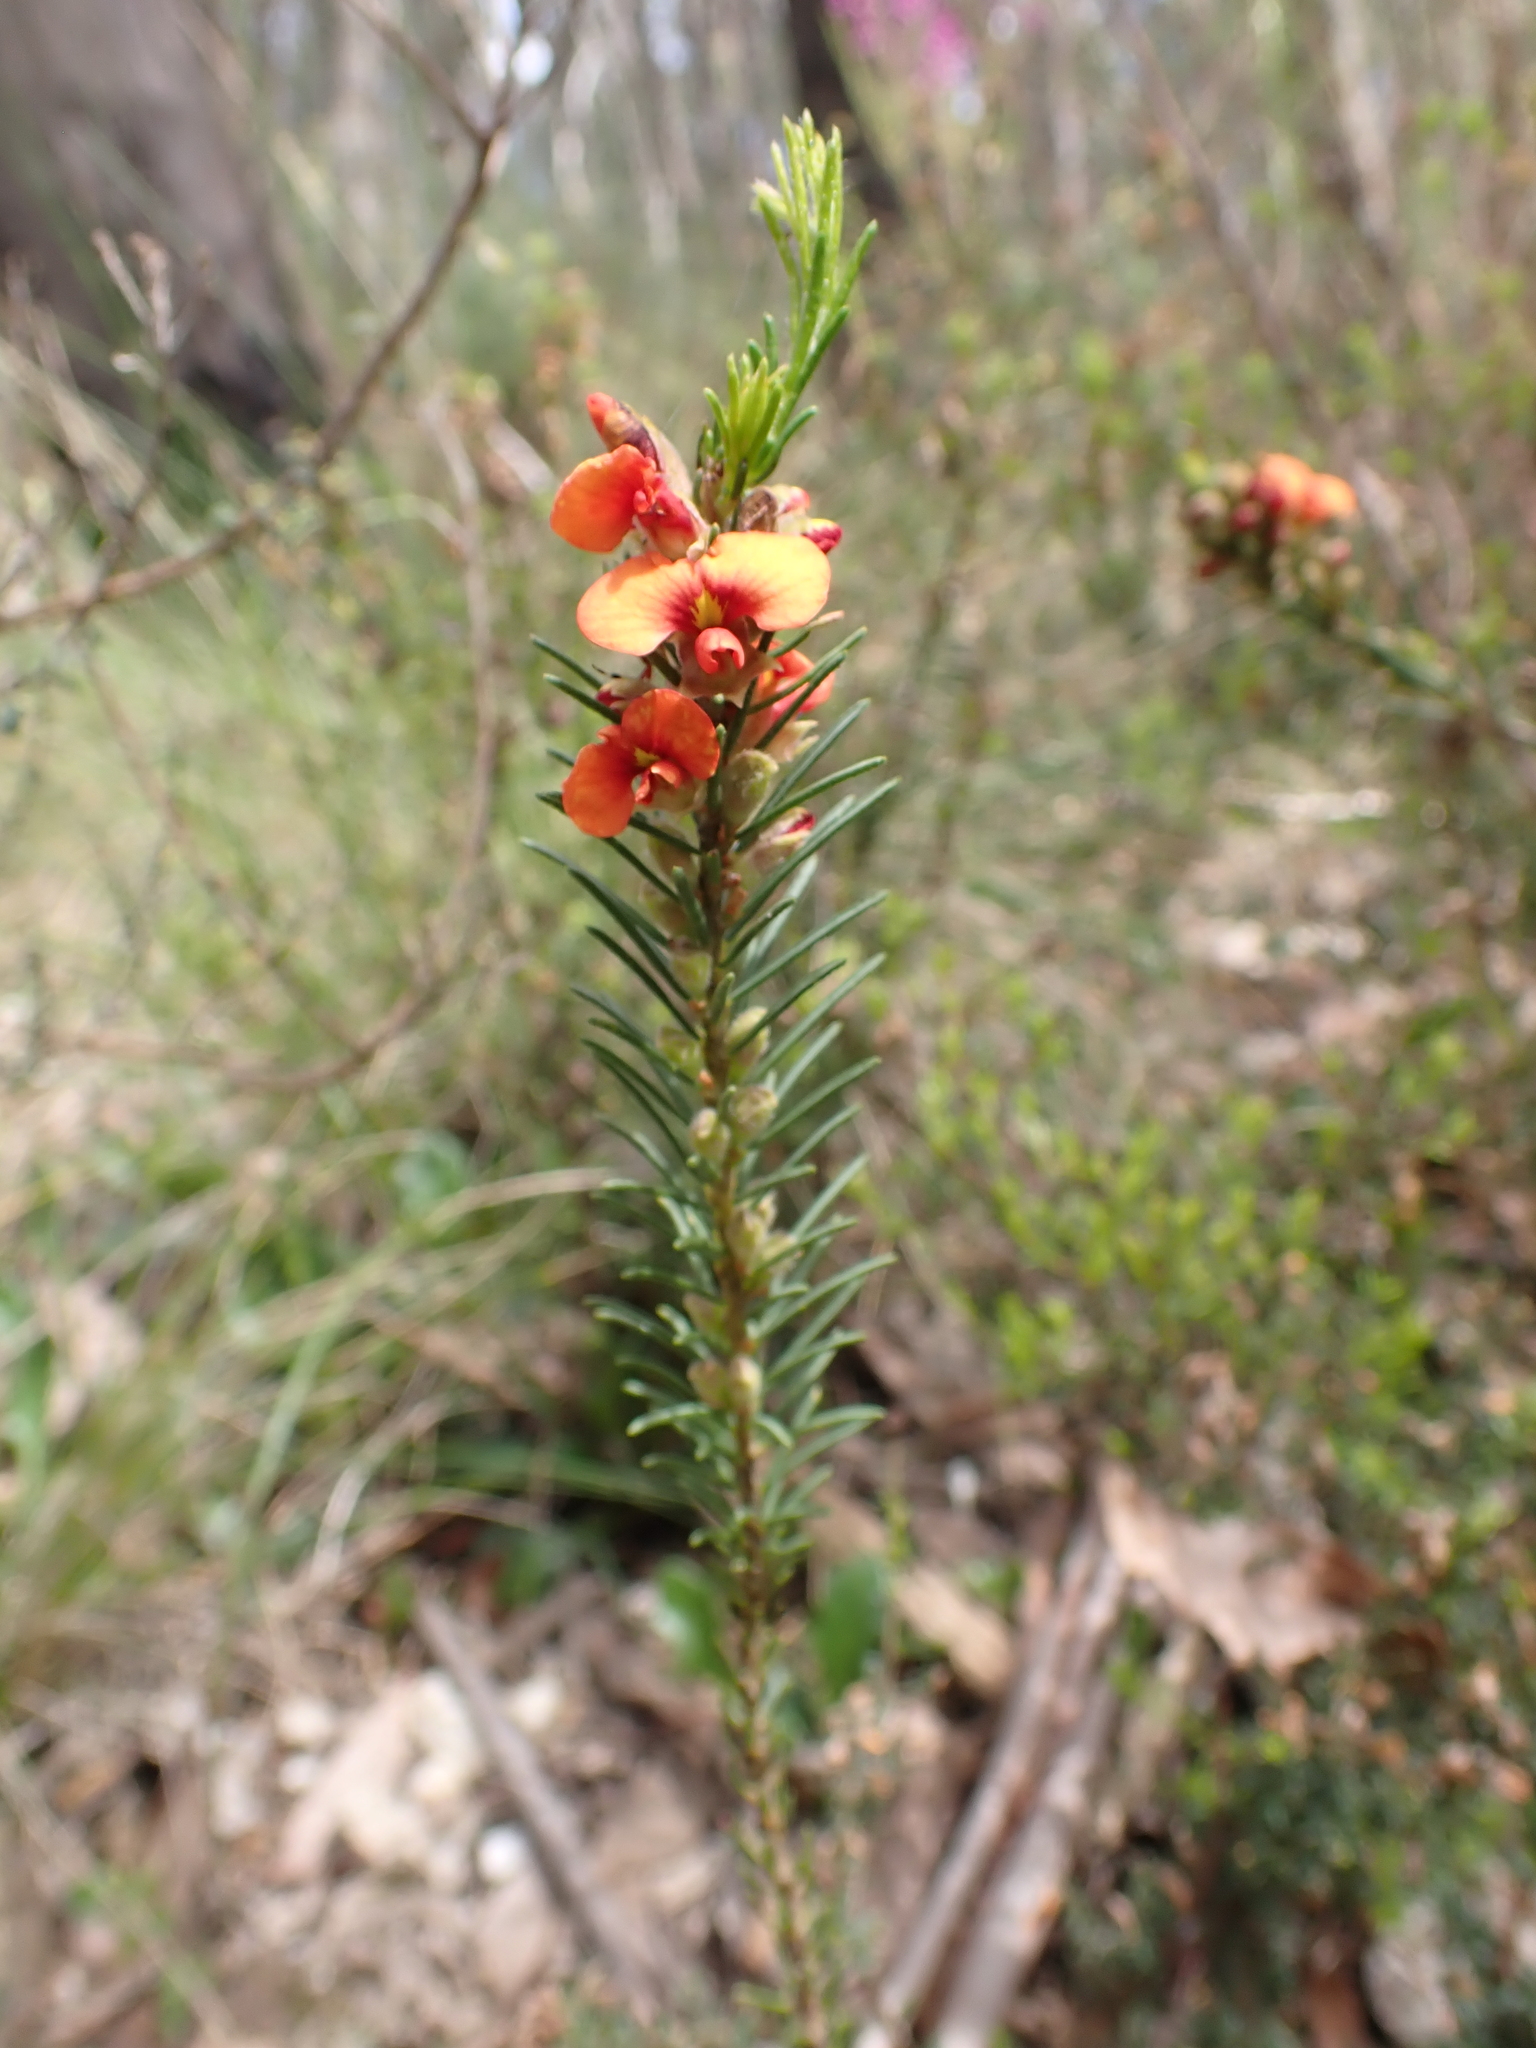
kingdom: Plantae
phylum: Tracheophyta
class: Magnoliopsida
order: Fabales
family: Fabaceae
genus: Dillwynia
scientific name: Dillwynia sericea
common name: Showy parrot-pea
